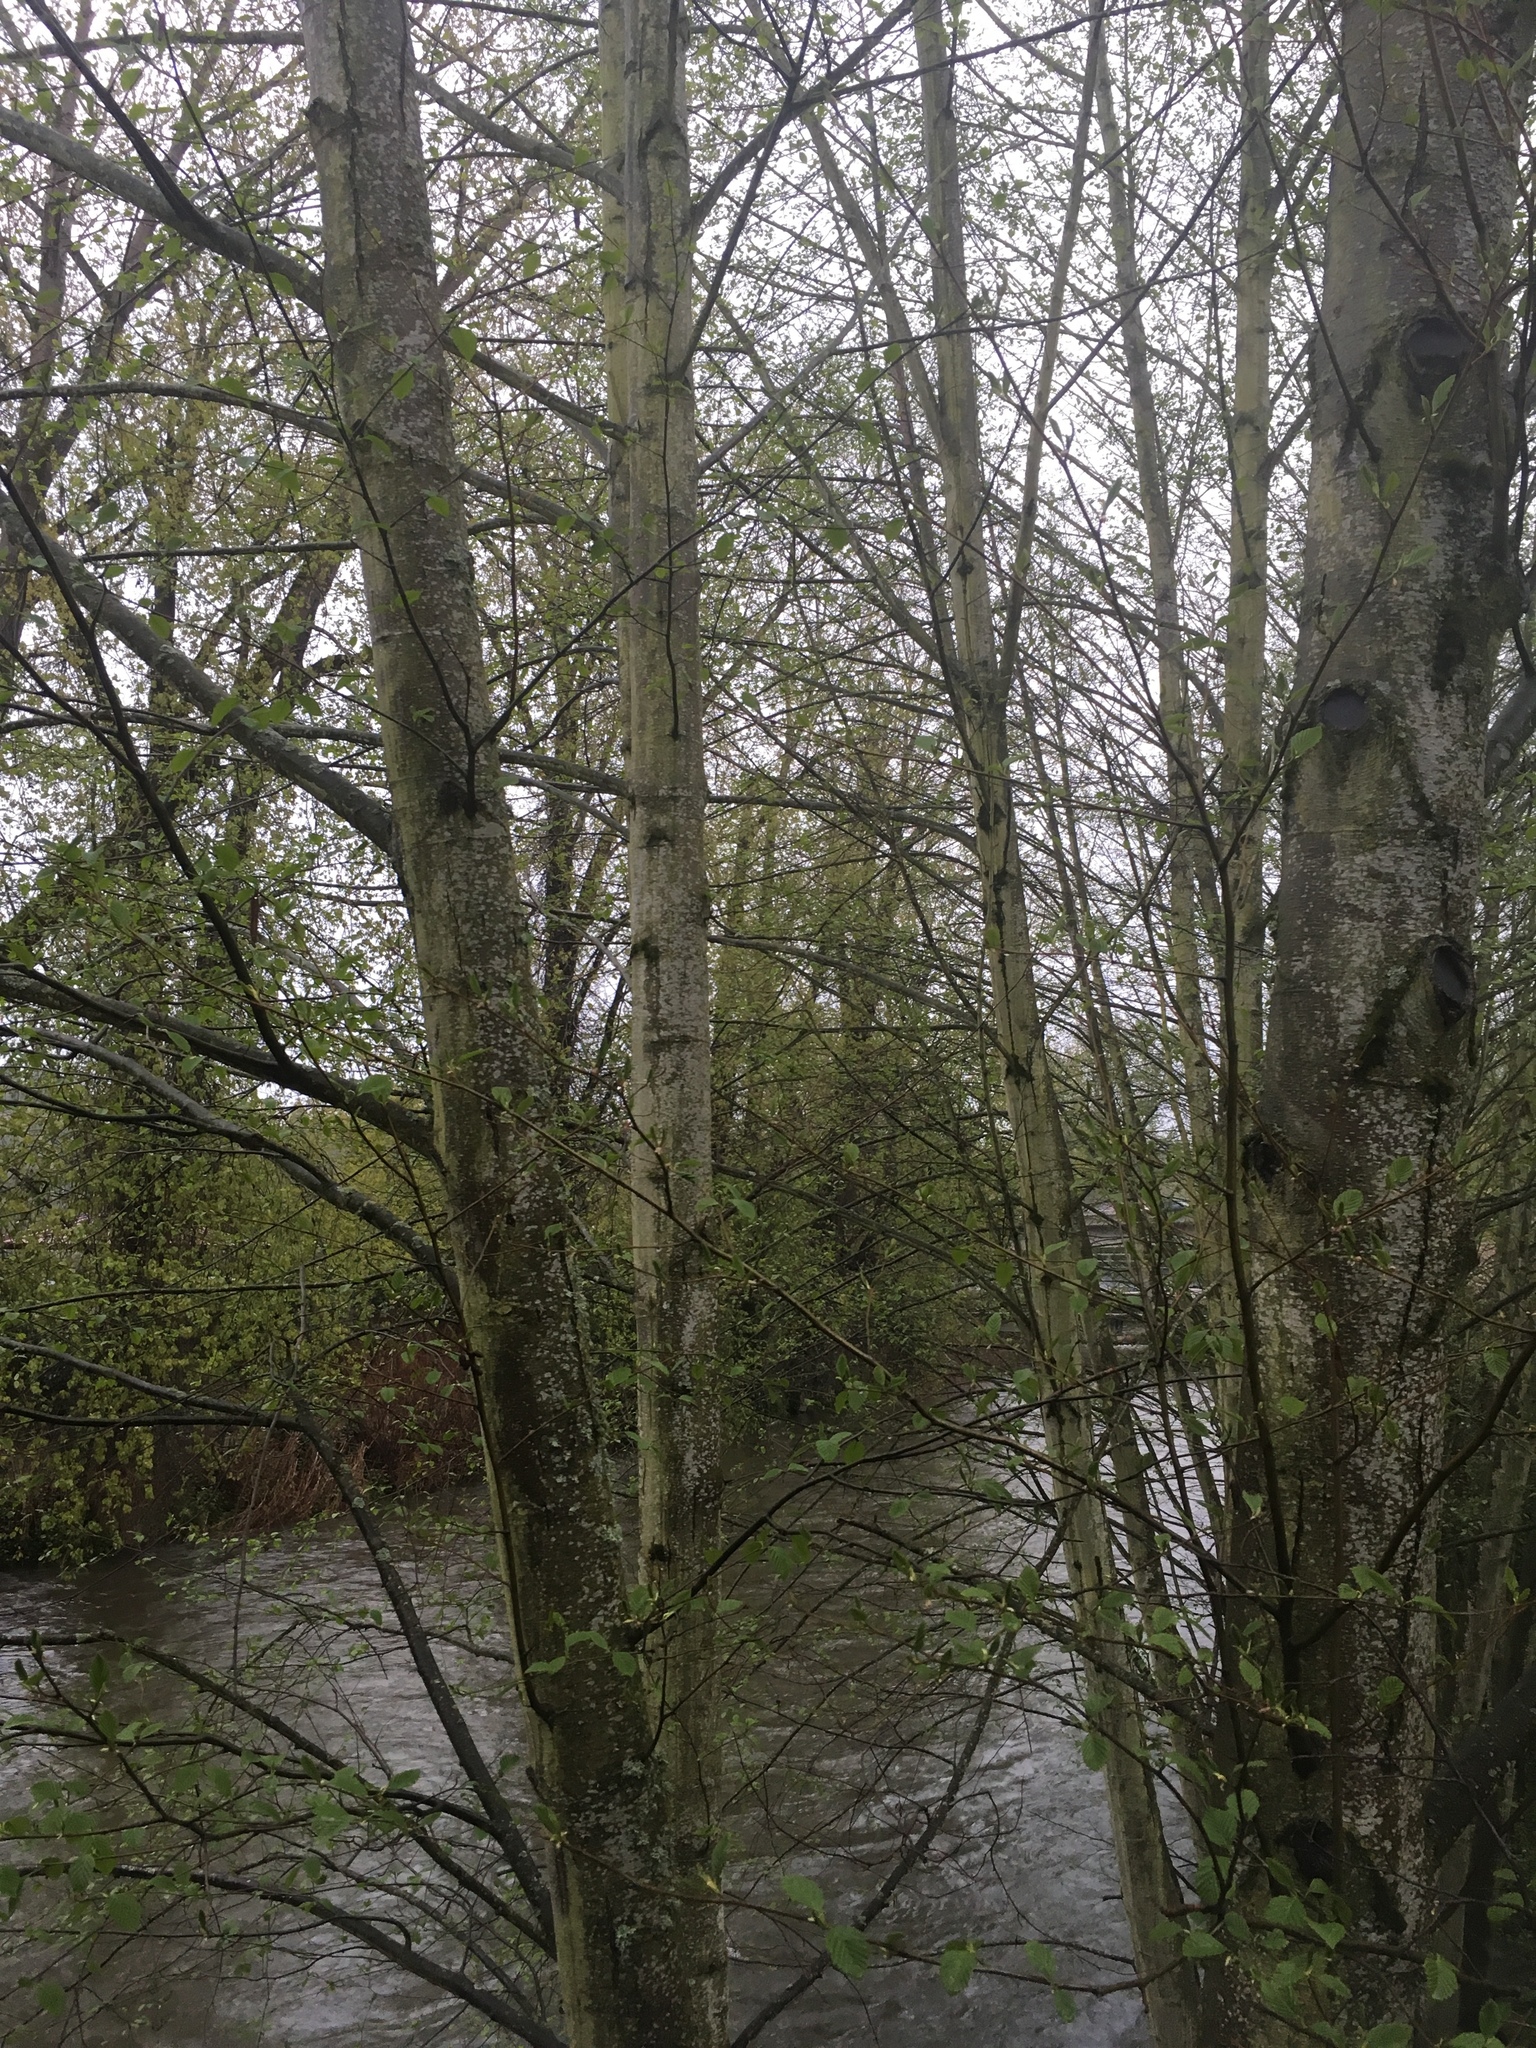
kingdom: Plantae
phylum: Tracheophyta
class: Magnoliopsida
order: Fagales
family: Betulaceae
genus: Alnus
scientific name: Alnus rubra
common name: Red alder
